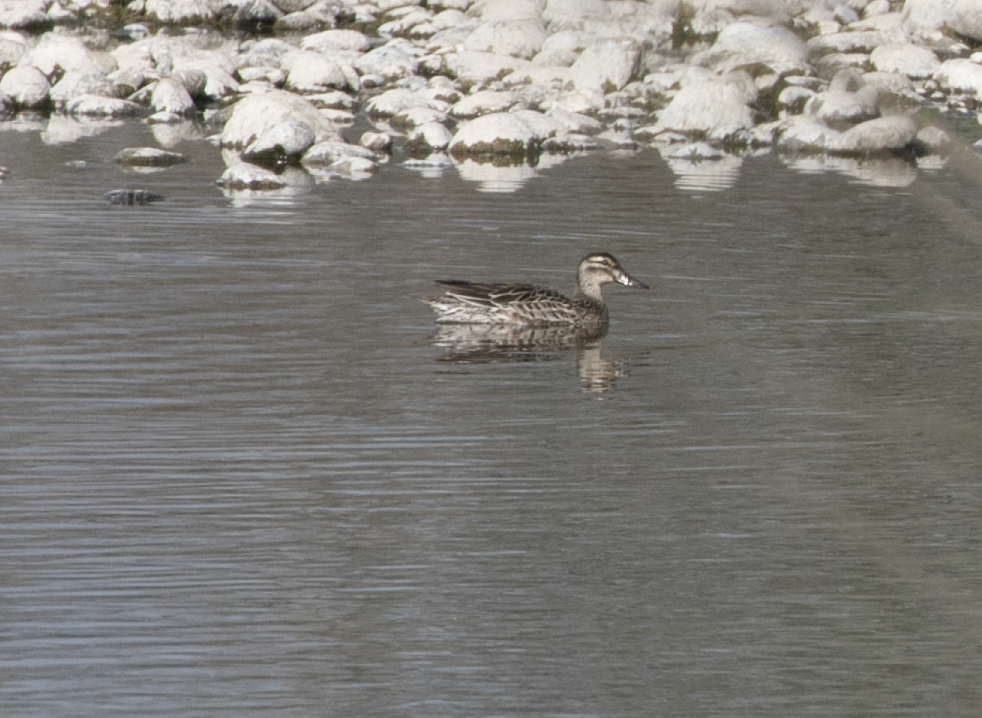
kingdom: Animalia
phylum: Chordata
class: Aves
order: Anseriformes
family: Anatidae
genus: Spatula
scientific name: Spatula querquedula
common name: Garganey
